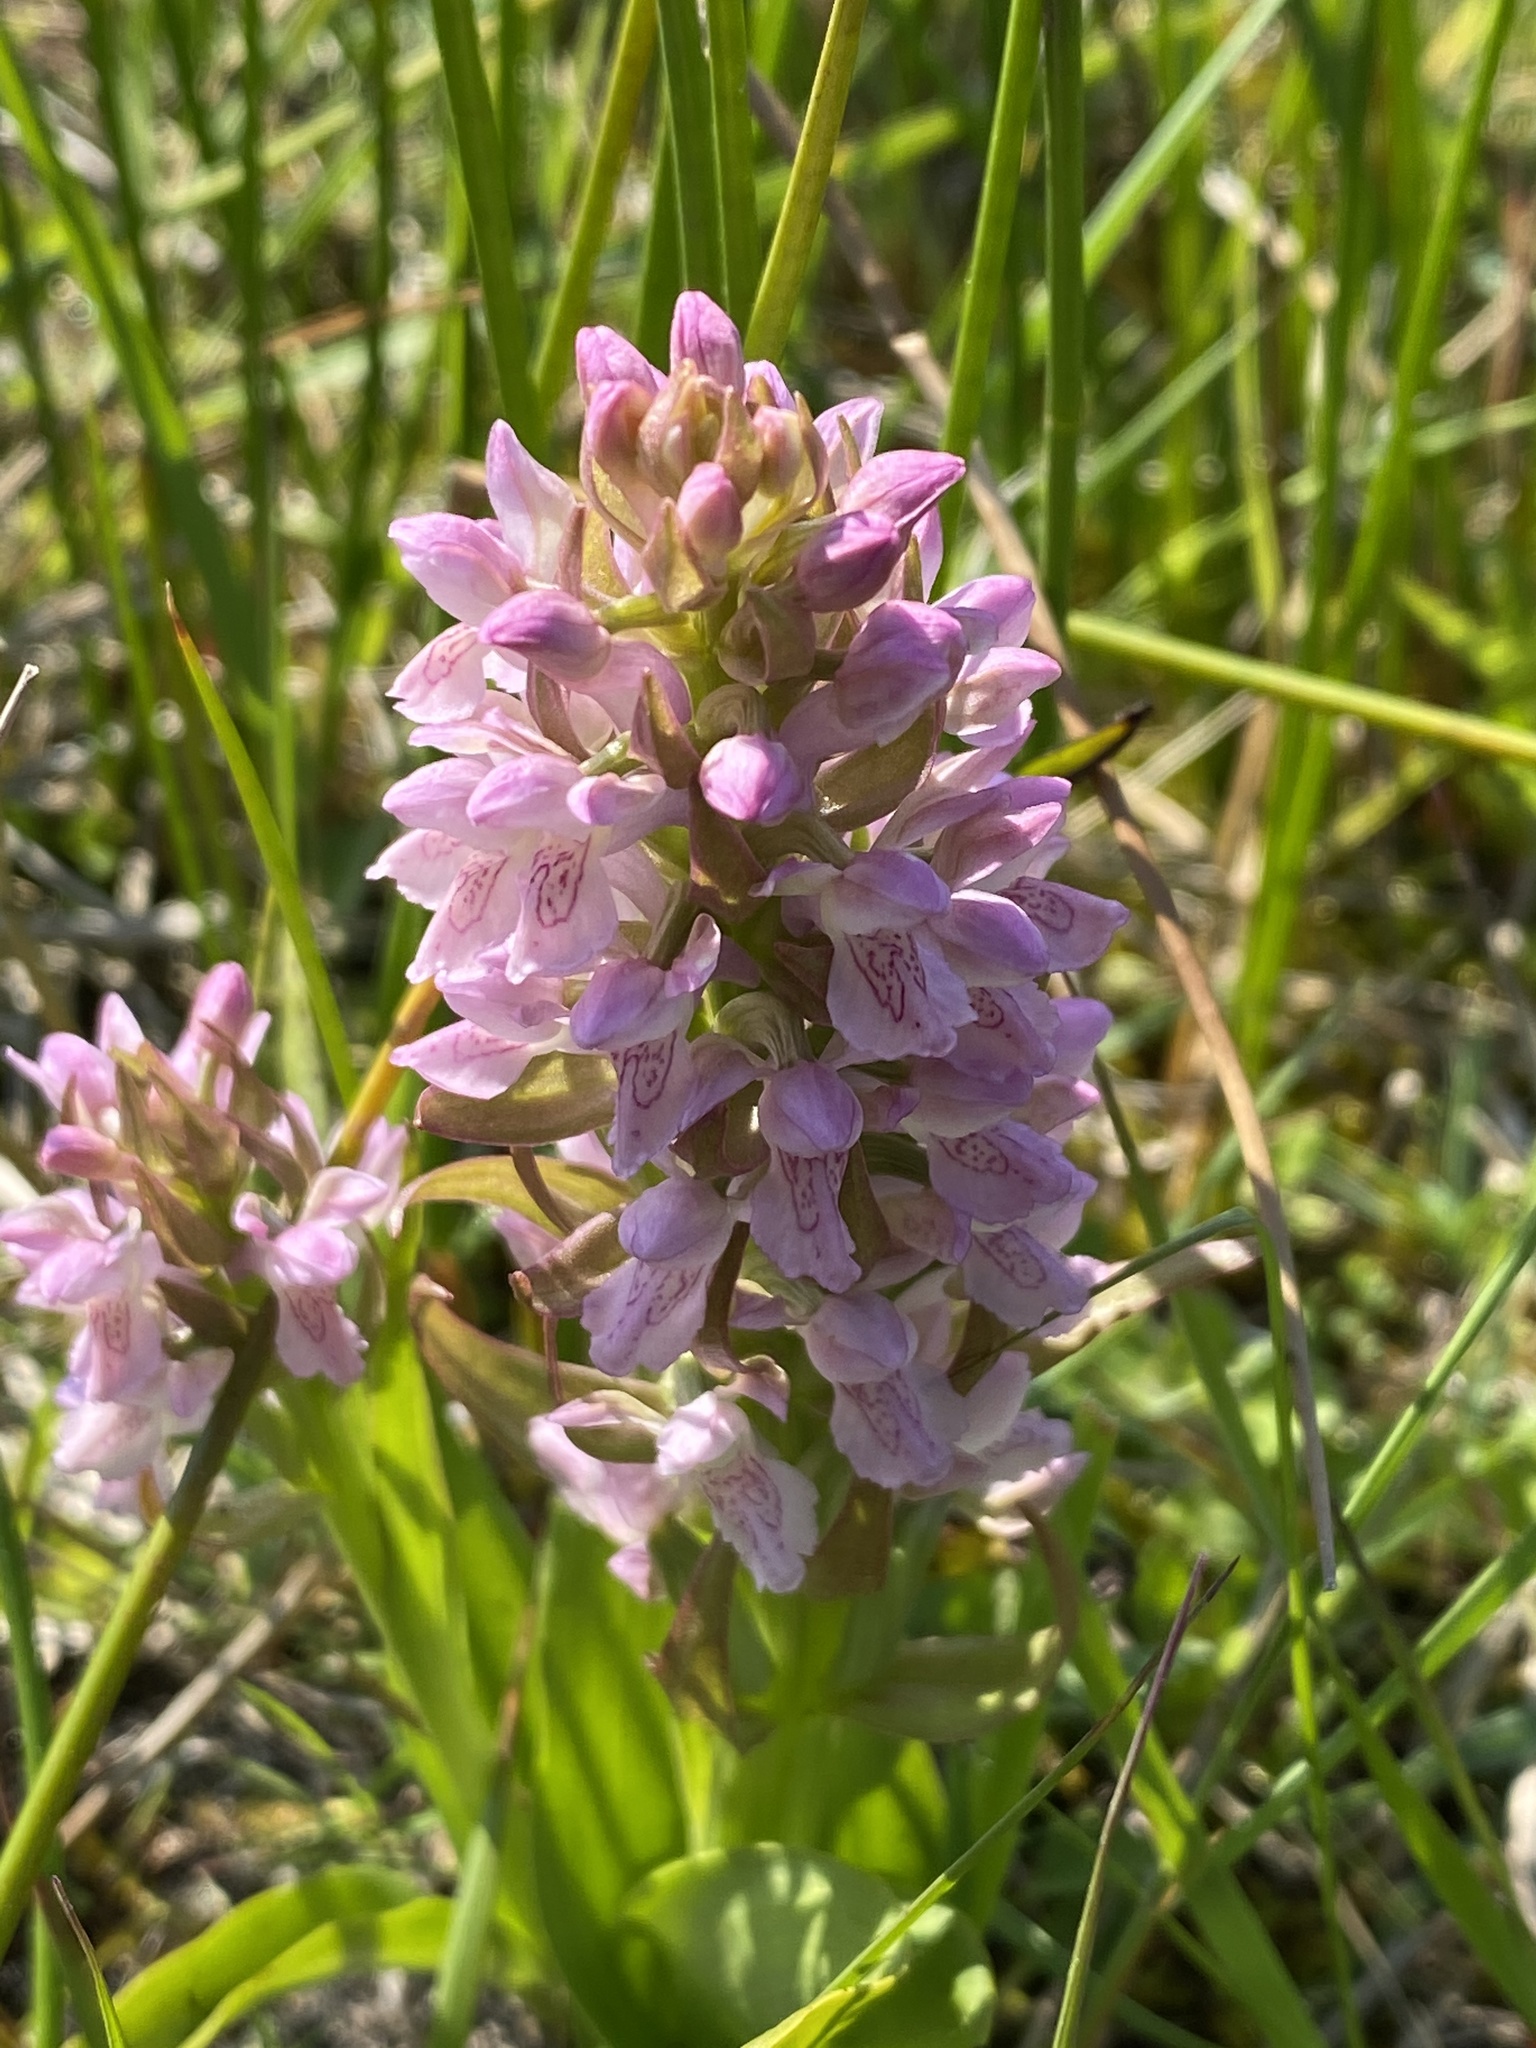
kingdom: Plantae
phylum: Tracheophyta
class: Liliopsida
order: Asparagales
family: Orchidaceae
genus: Dactylorhiza
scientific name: Dactylorhiza incarnata
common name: Early marsh-orchid
